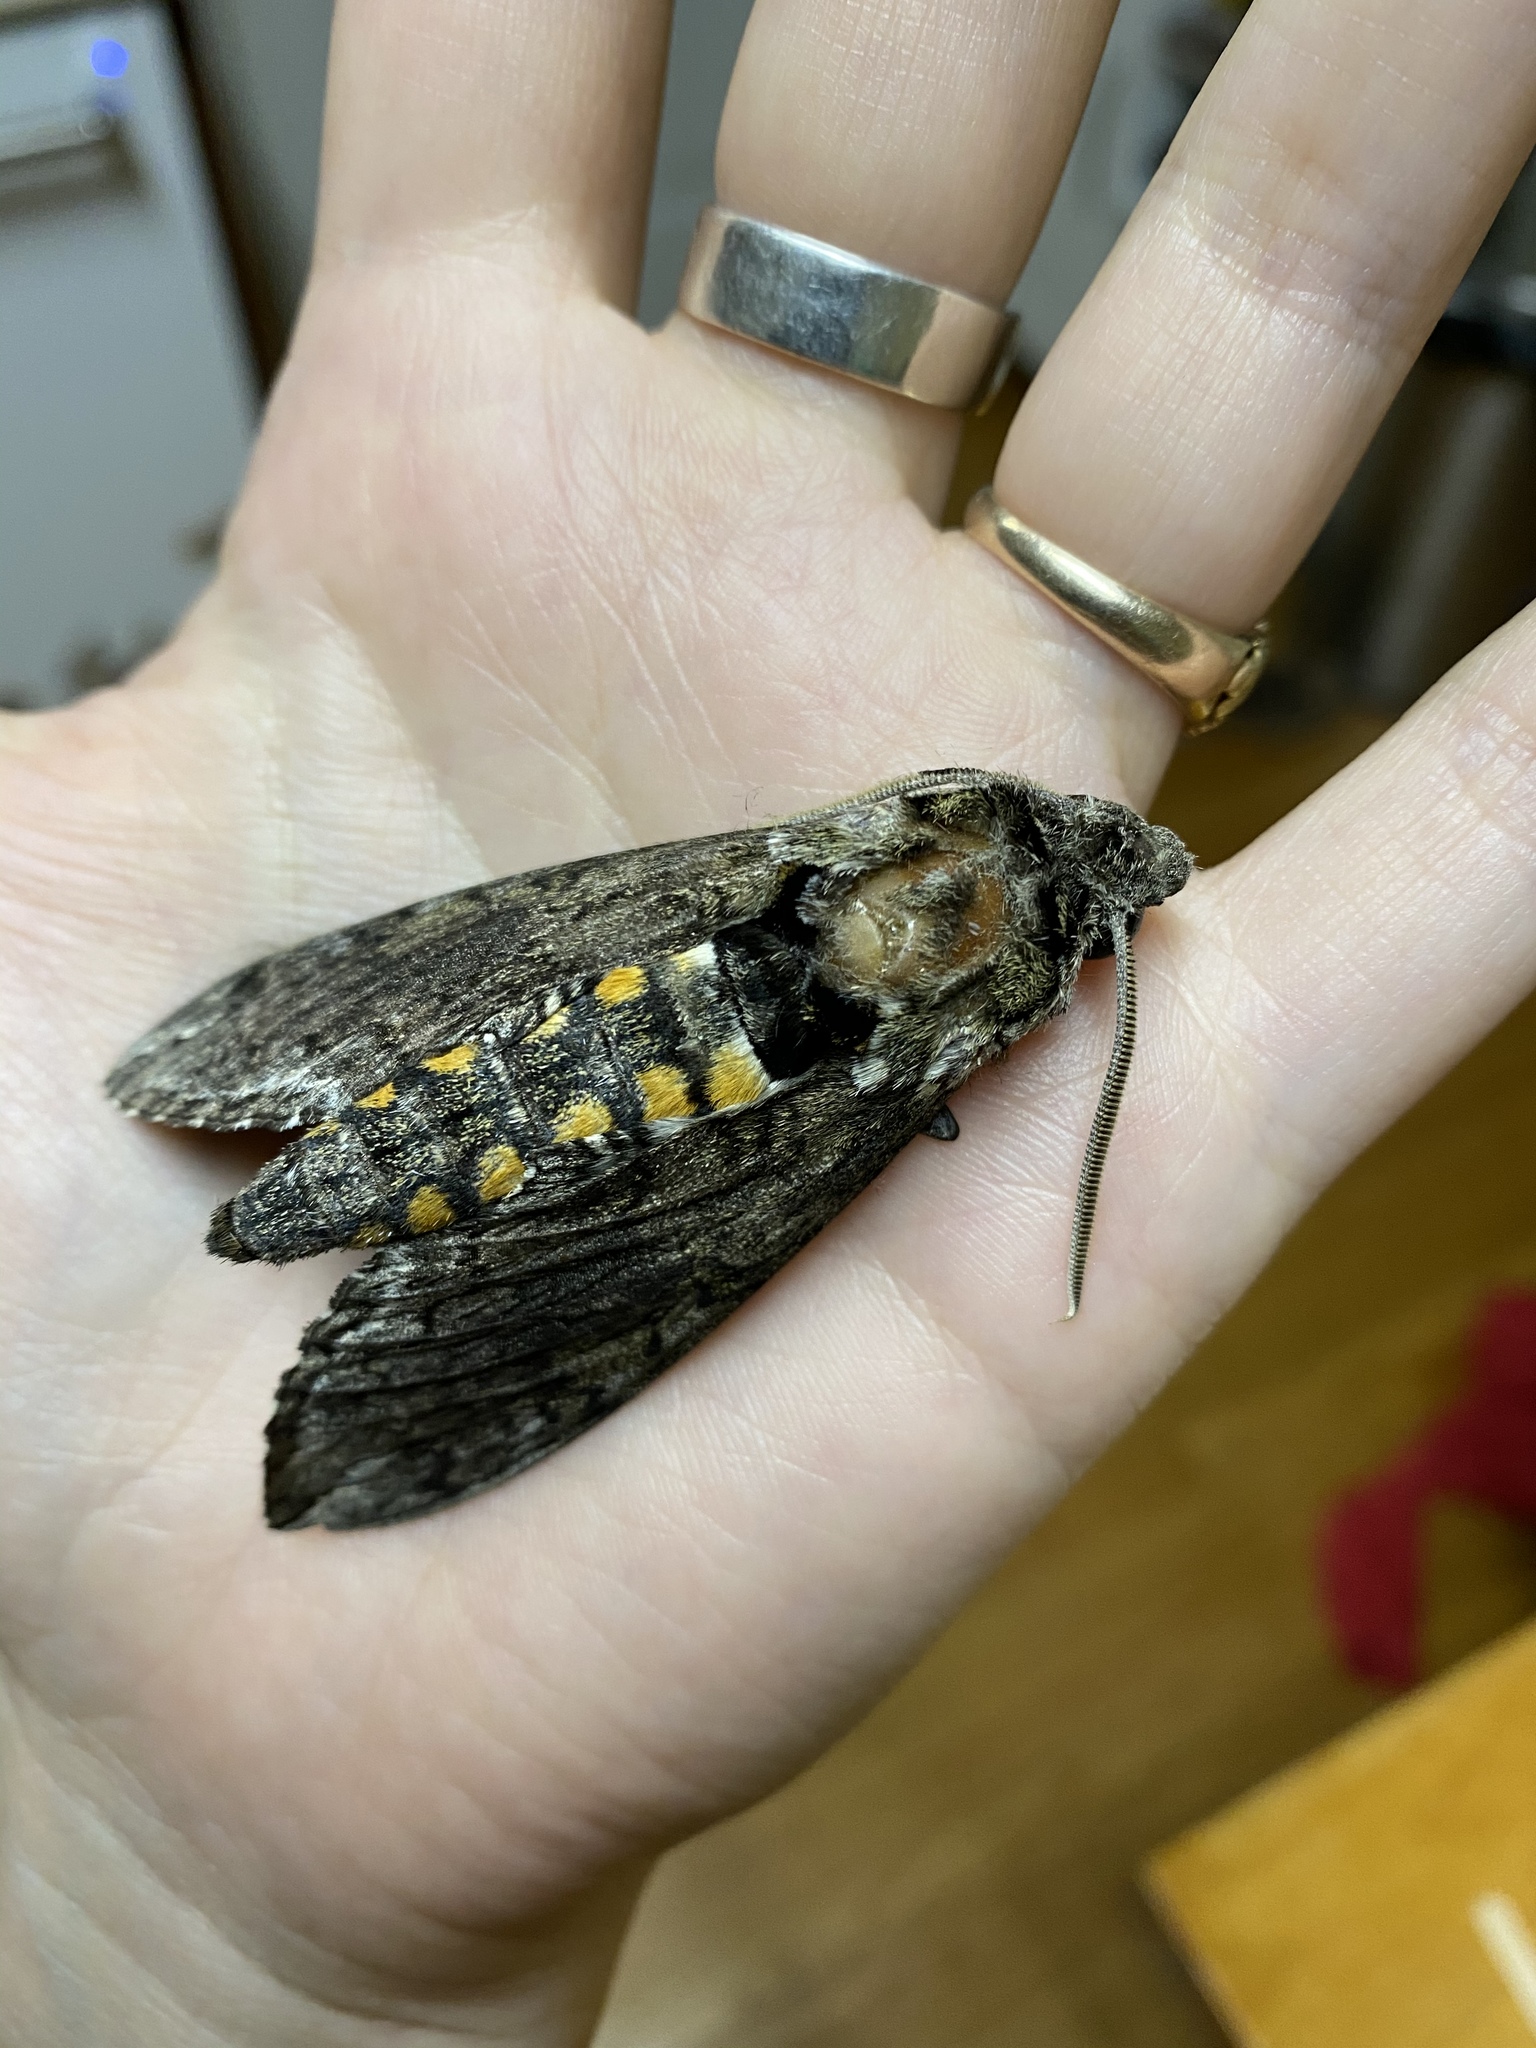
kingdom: Animalia
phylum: Arthropoda
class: Insecta
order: Lepidoptera
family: Sphingidae
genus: Manduca
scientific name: Manduca sexta
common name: Carolina sphinx
